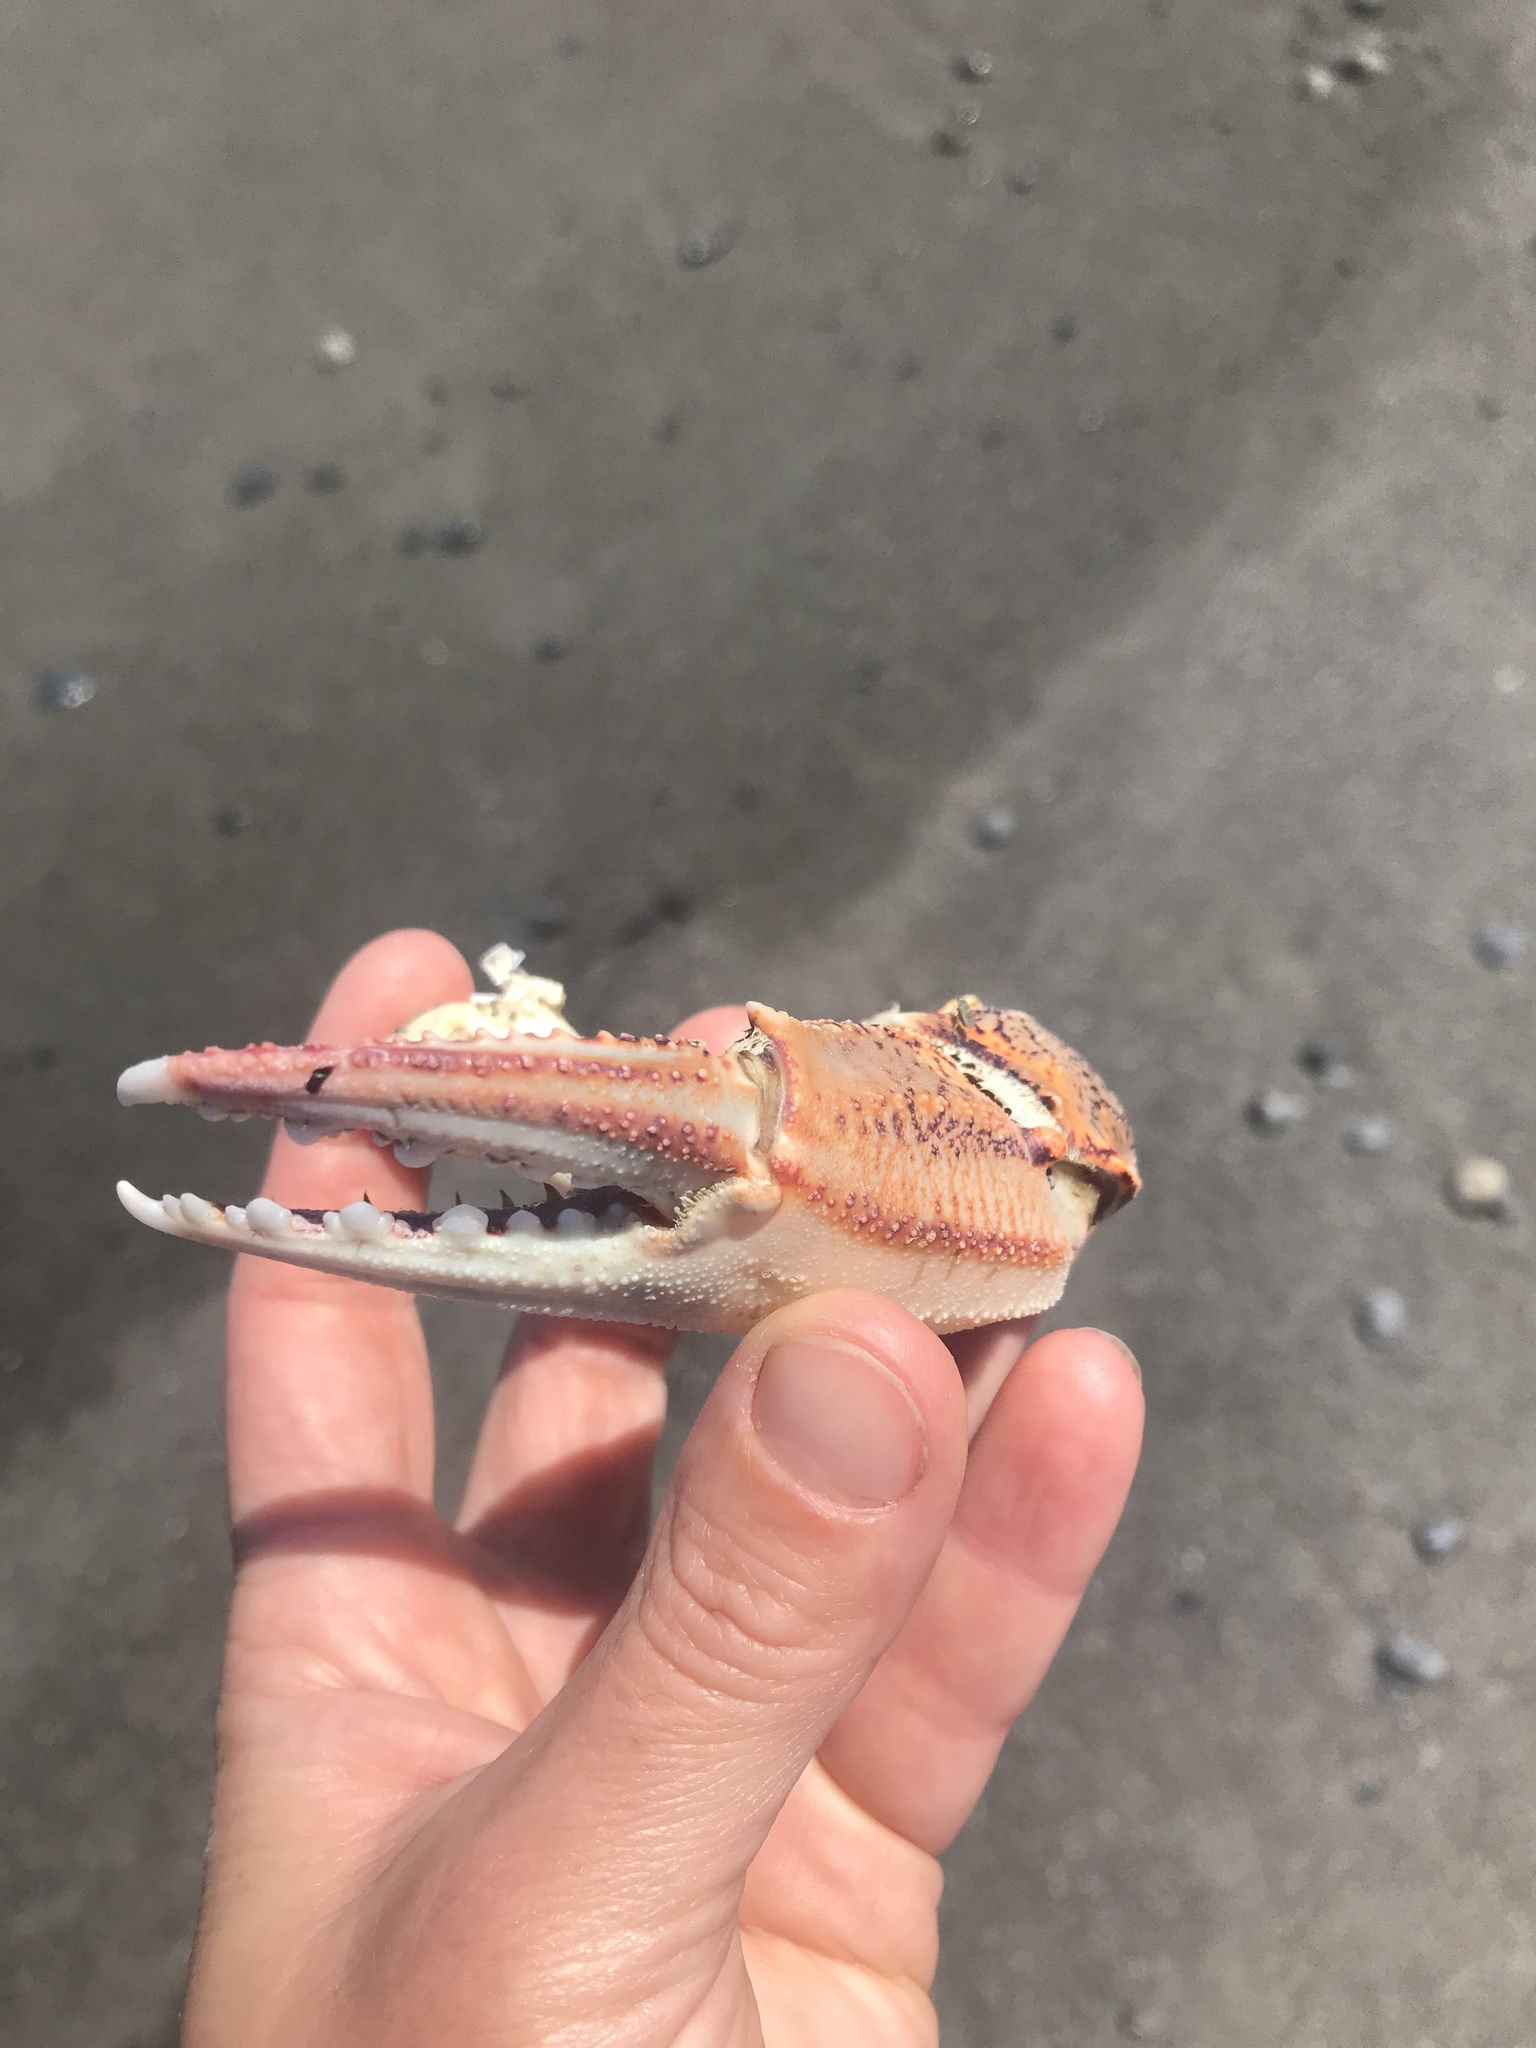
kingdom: Animalia
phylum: Arthropoda
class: Malacostraca
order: Decapoda
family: Ovalipidae
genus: Ovalipes
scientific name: Ovalipes catharus
